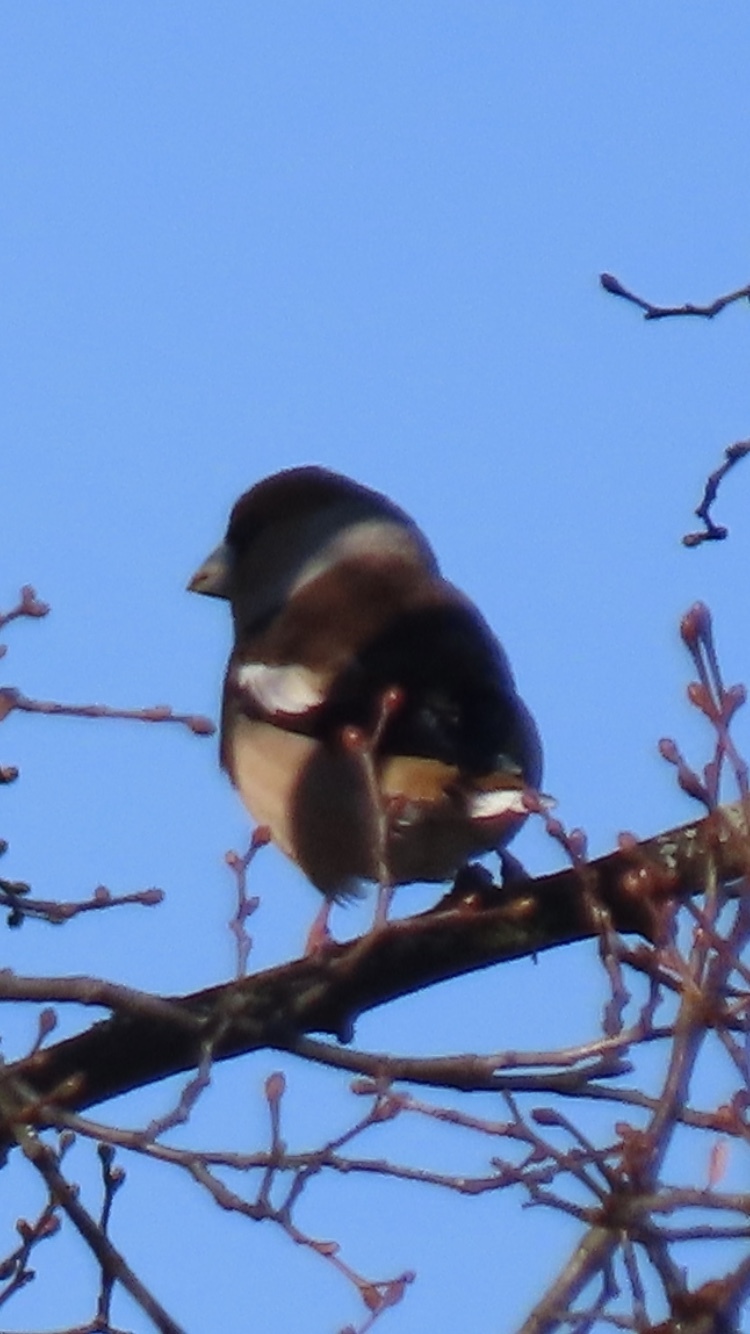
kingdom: Animalia
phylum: Chordata
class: Aves
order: Passeriformes
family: Fringillidae
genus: Coccothraustes
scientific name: Coccothraustes coccothraustes
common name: Hawfinch
